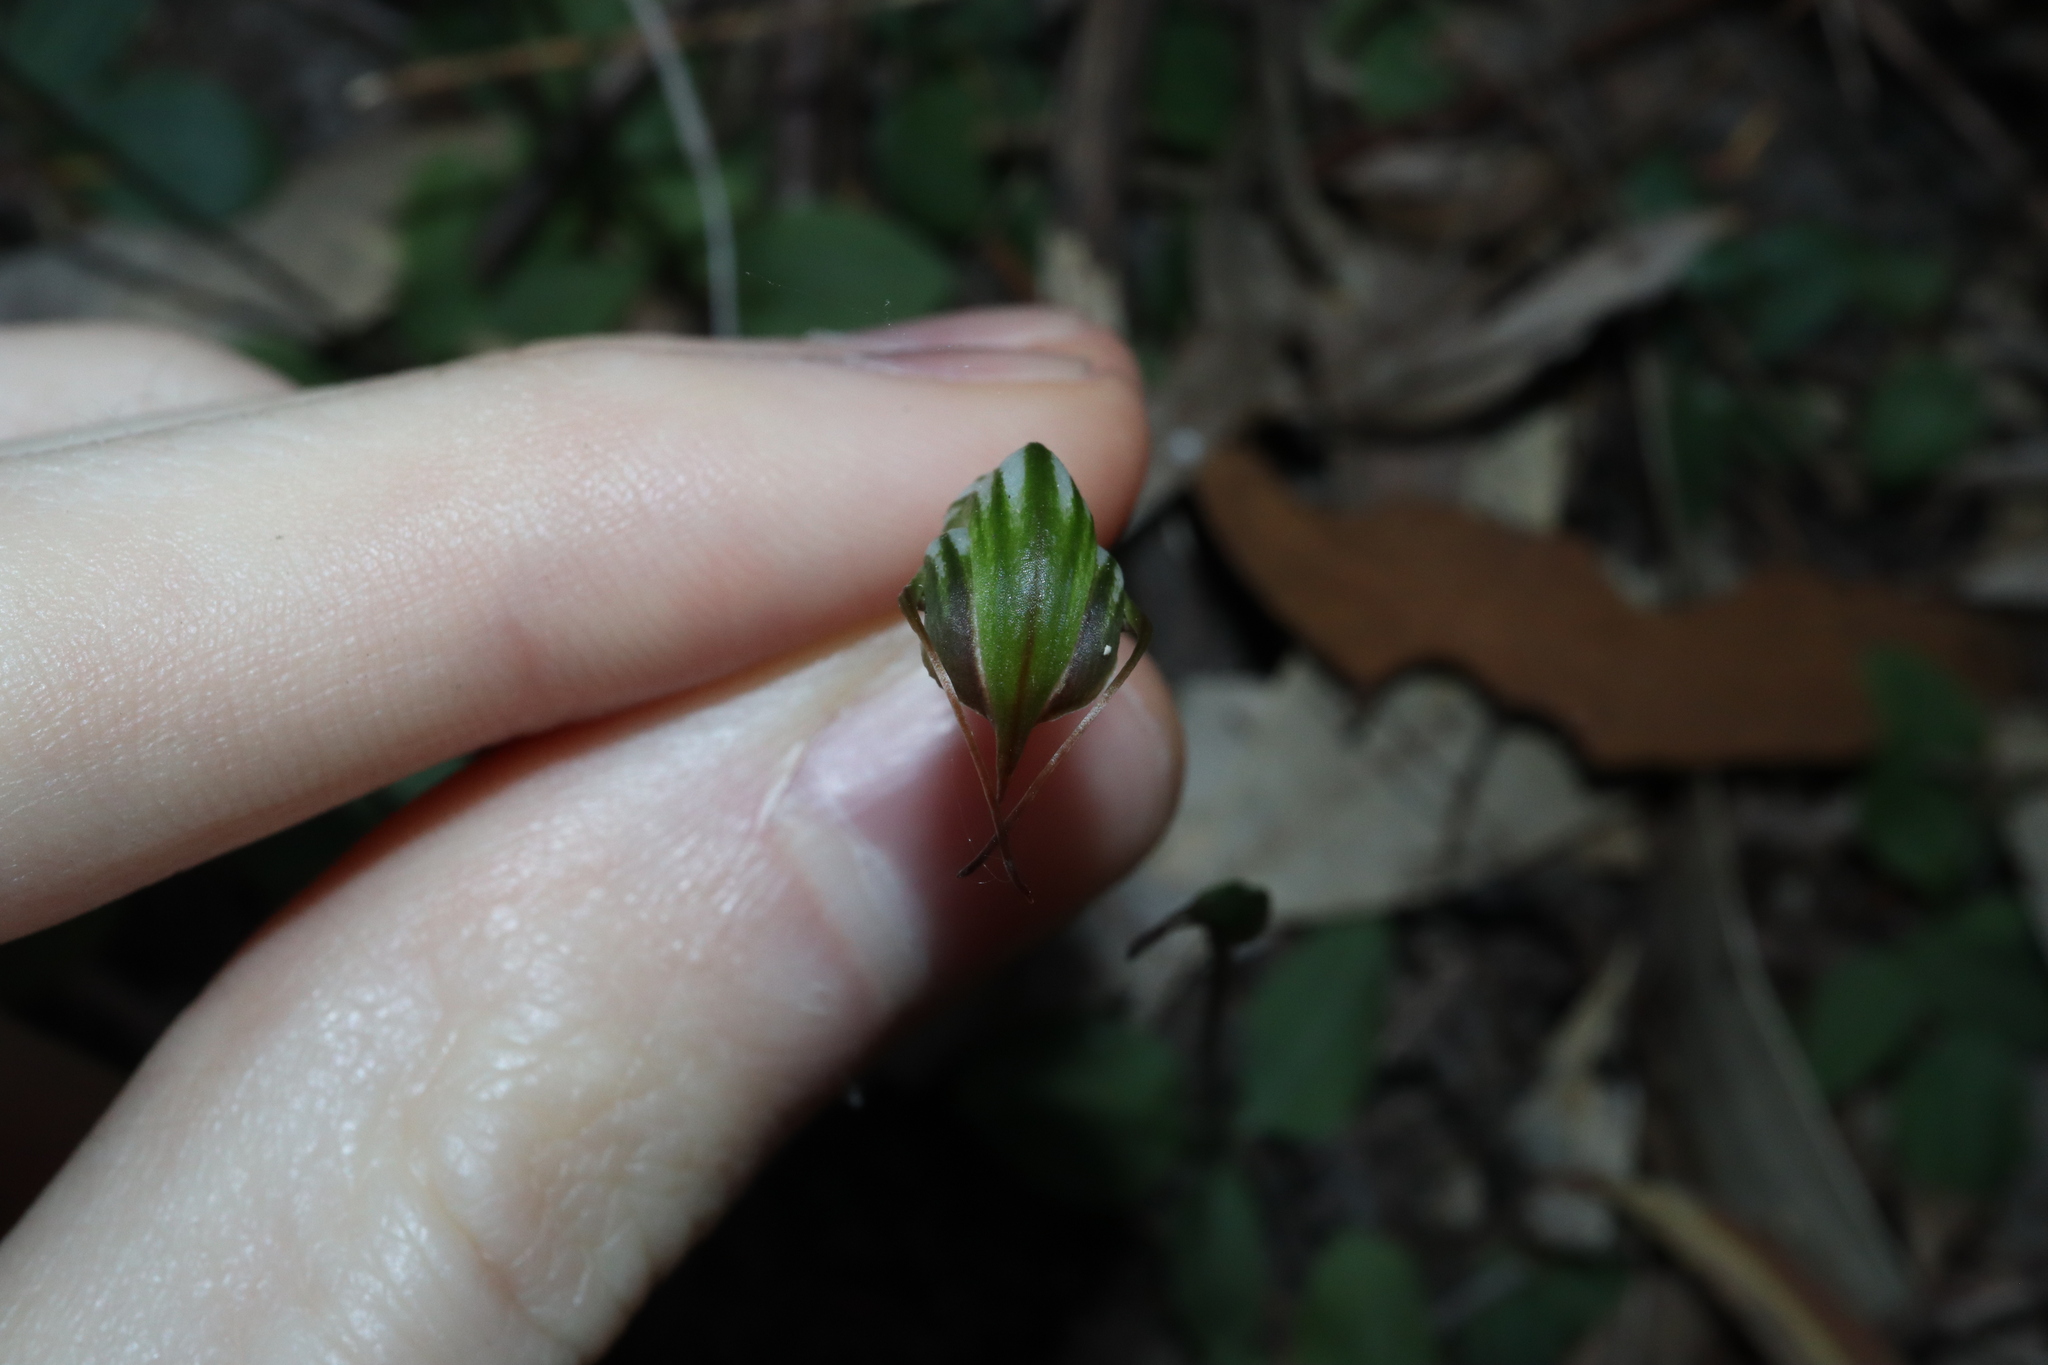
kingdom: Plantae
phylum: Tracheophyta
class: Liliopsida
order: Asparagales
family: Orchidaceae
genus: Pterostylis
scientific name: Pterostylis concinna
